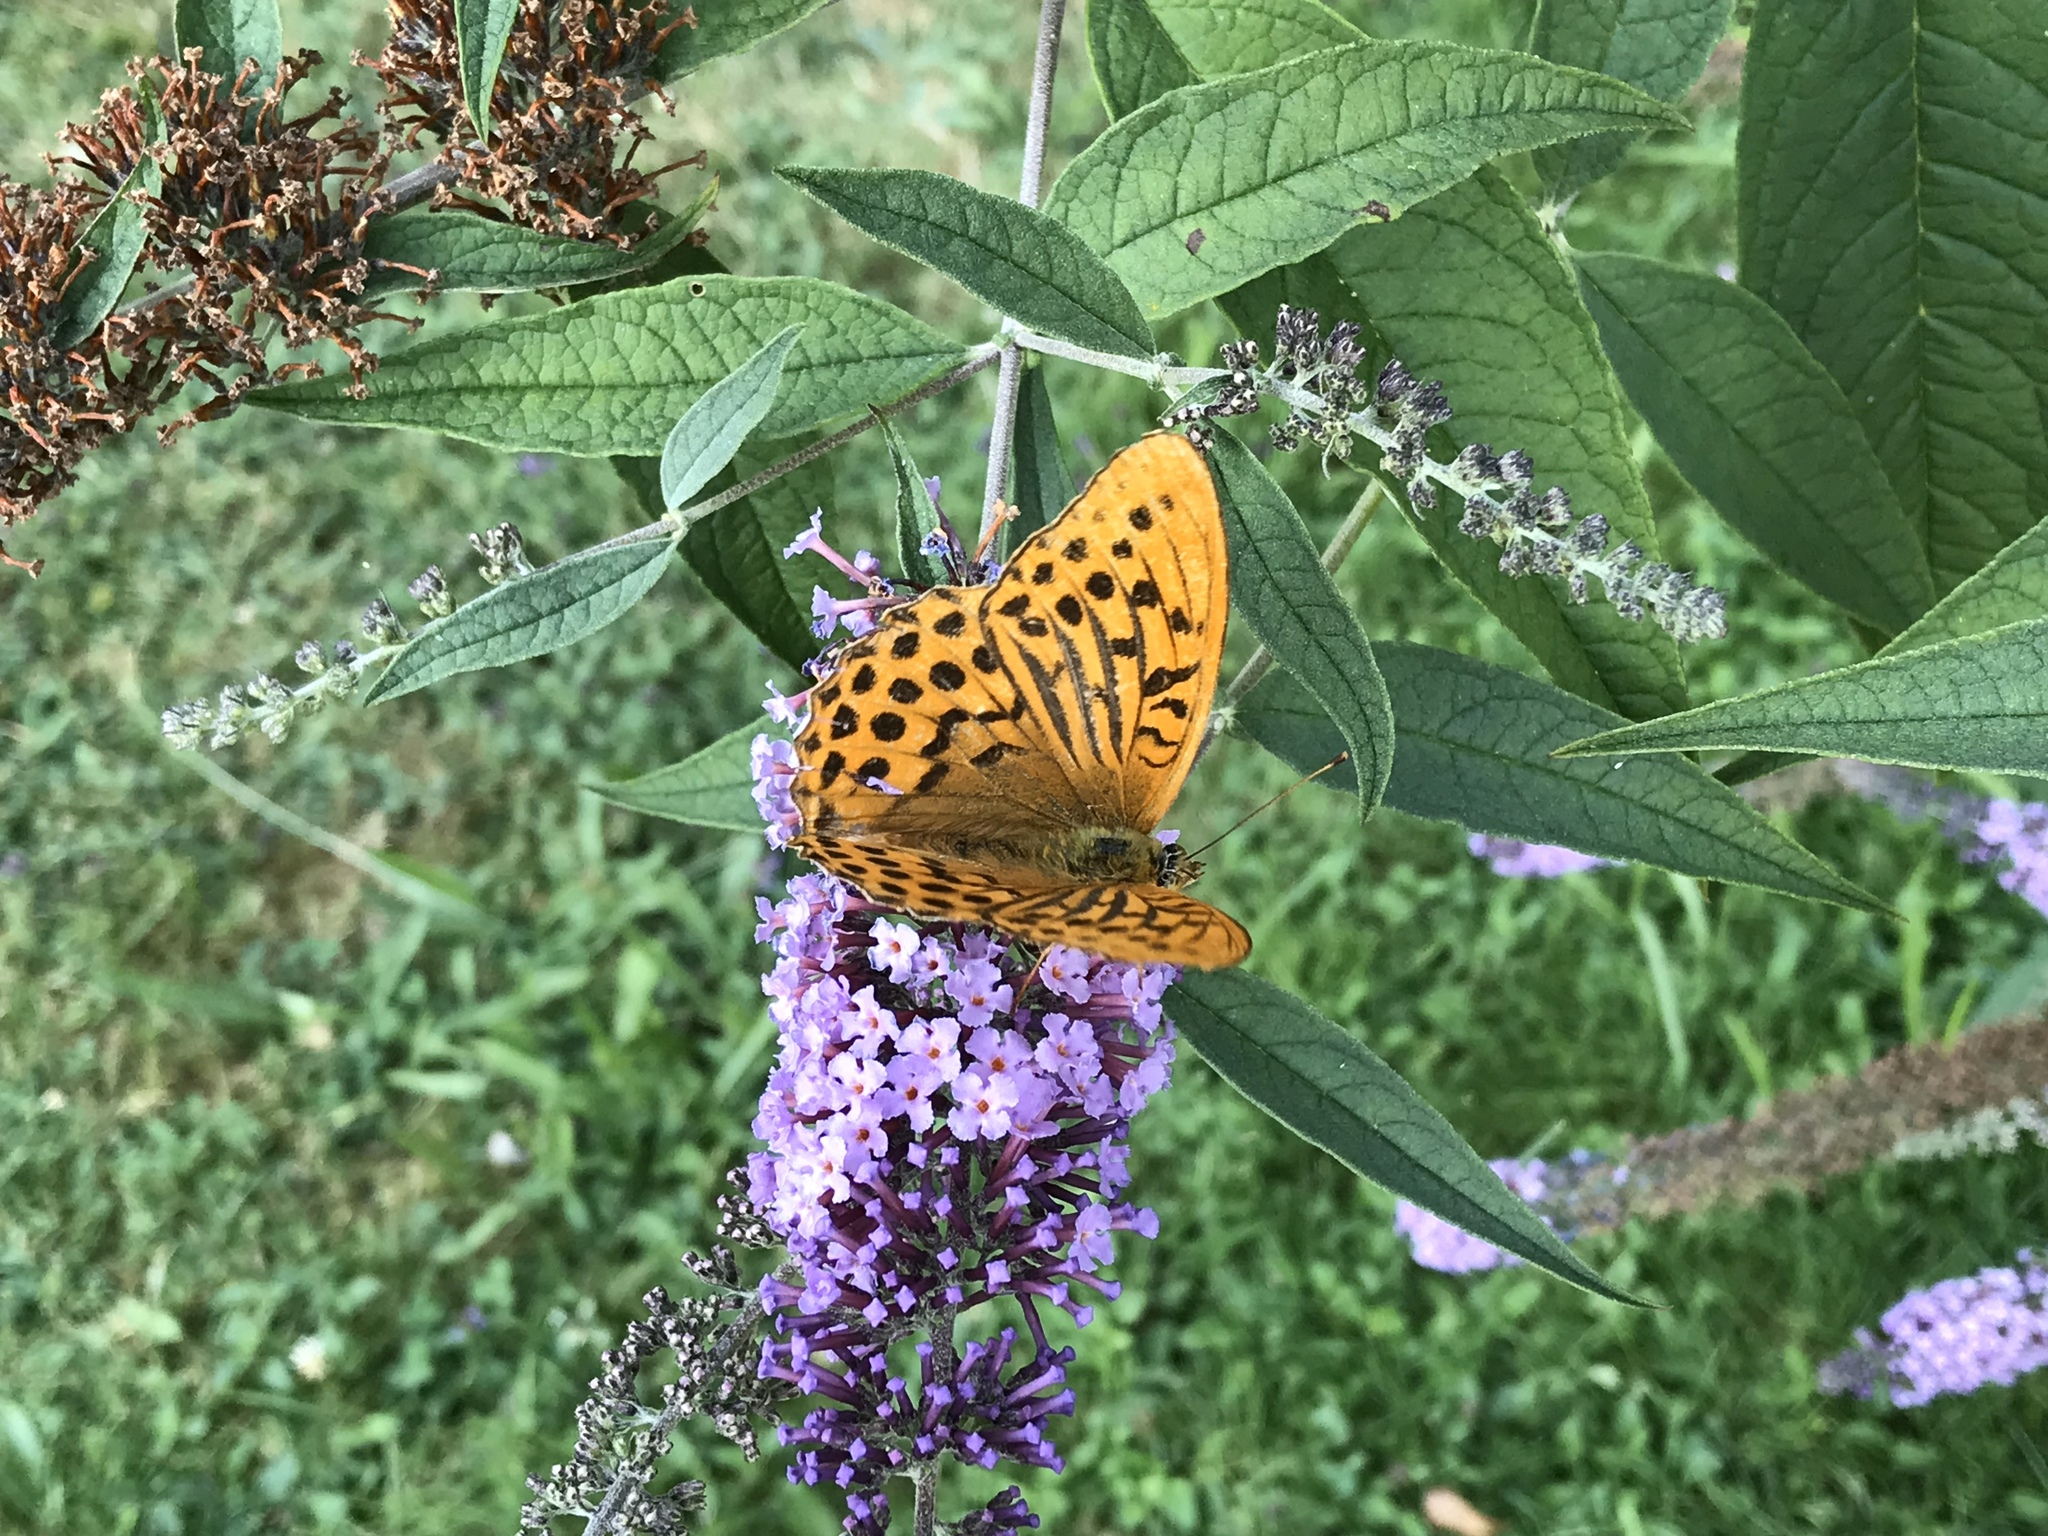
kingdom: Animalia
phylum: Arthropoda
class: Insecta
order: Lepidoptera
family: Nymphalidae
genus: Argynnis
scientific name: Argynnis paphia
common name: Silver-washed fritillary
